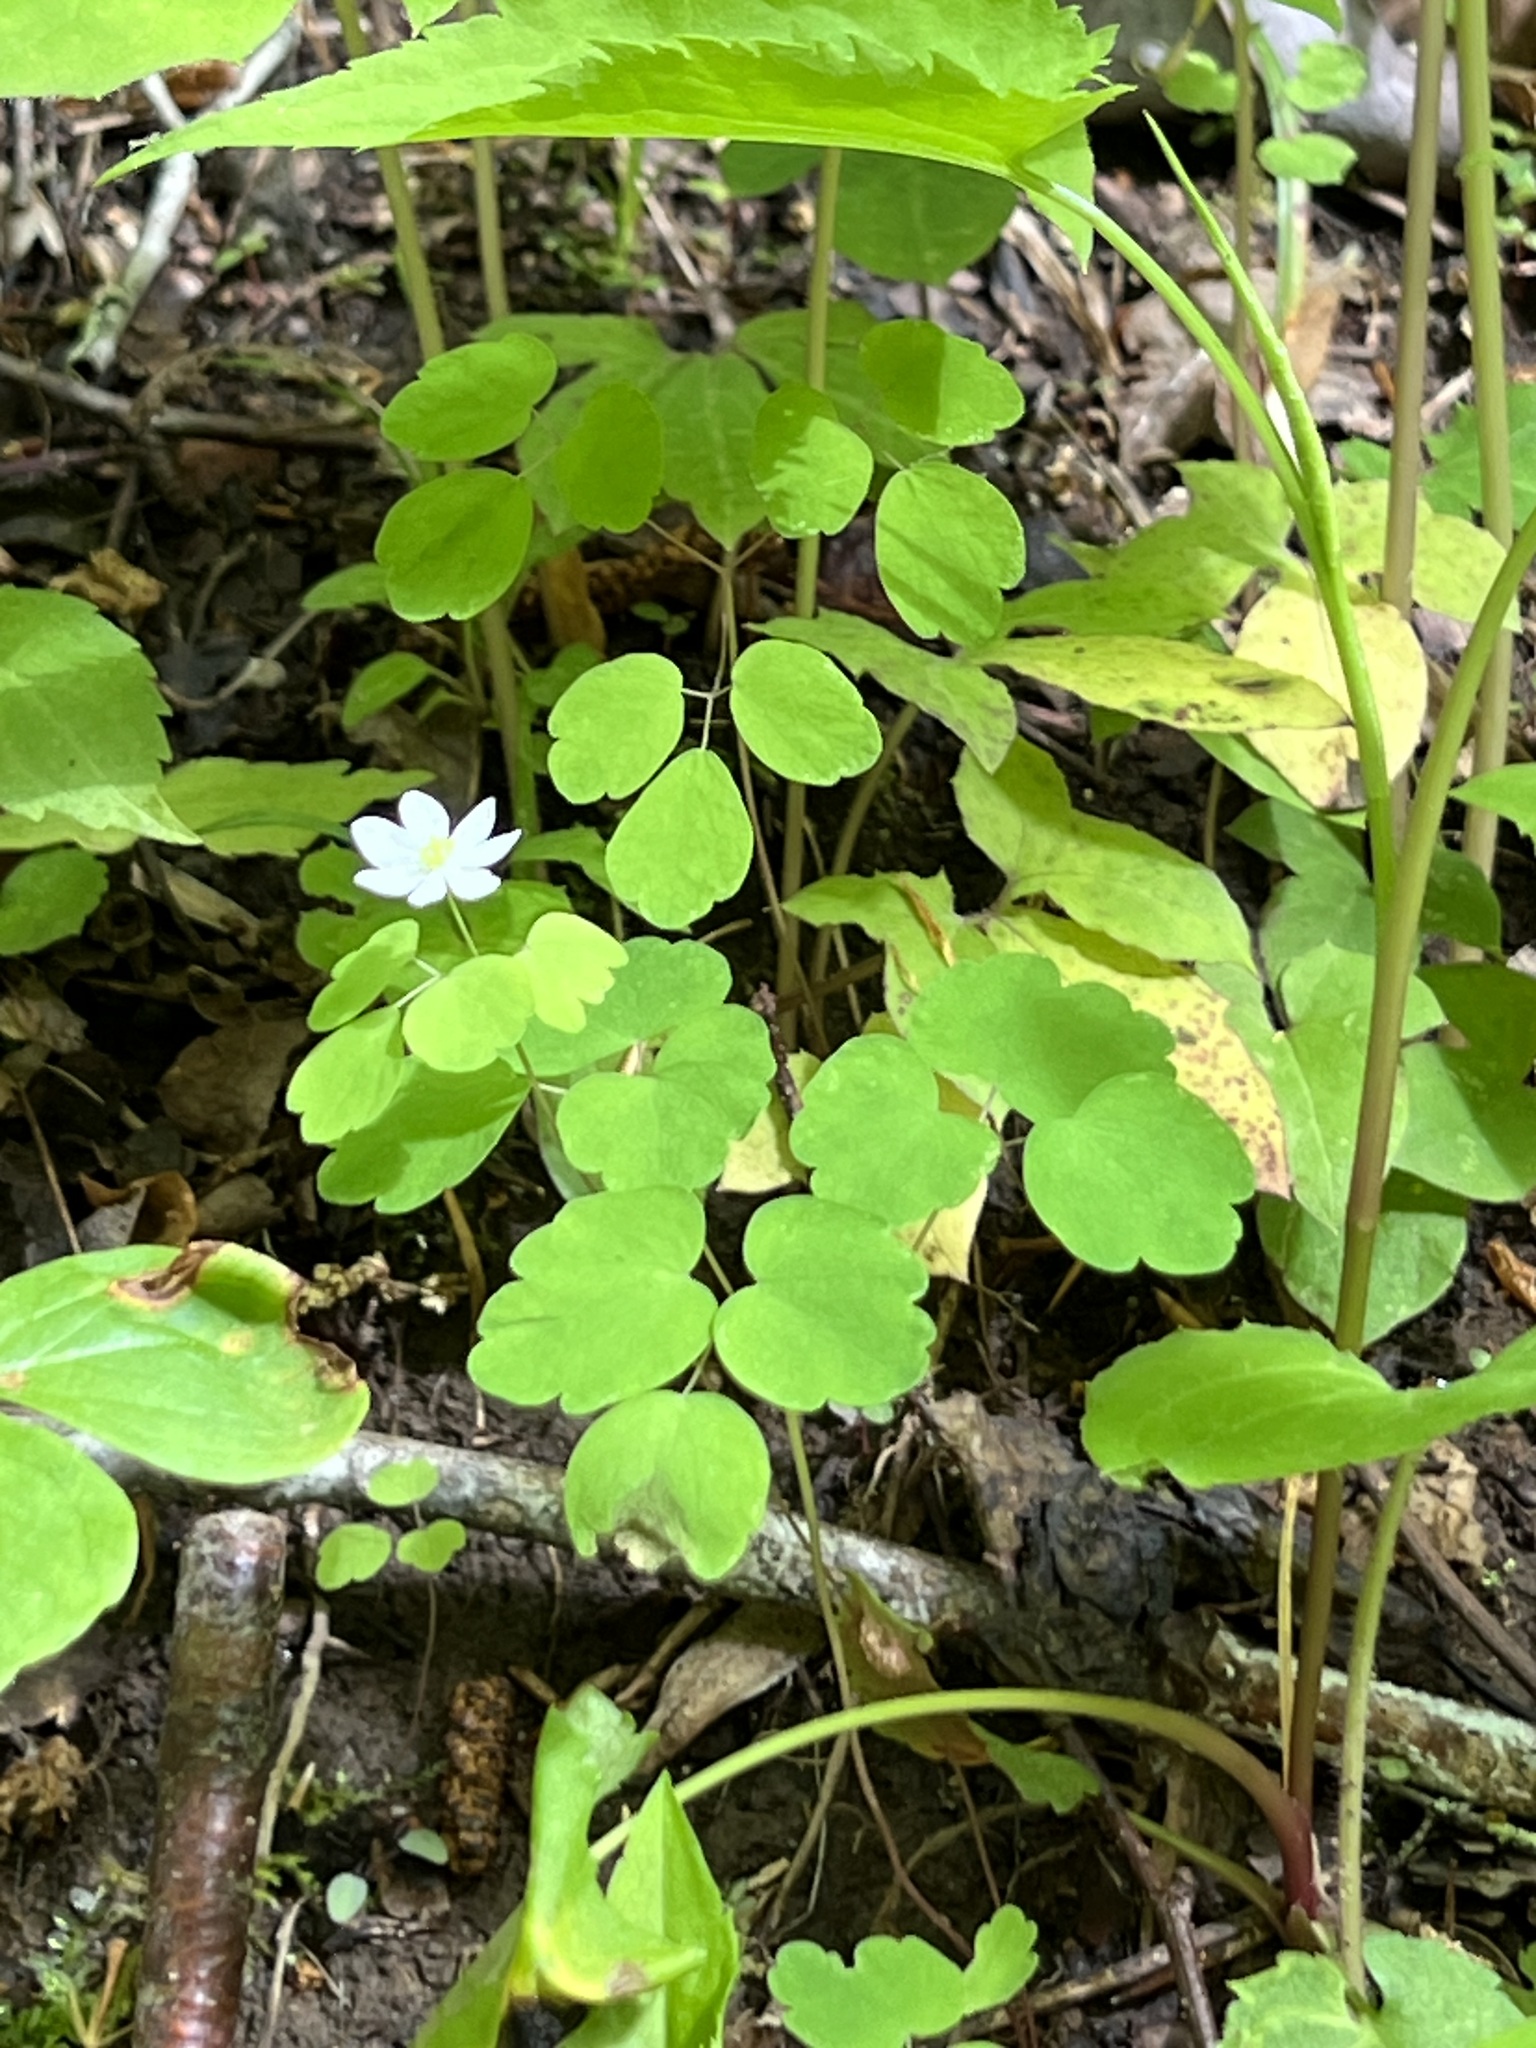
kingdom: Plantae
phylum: Tracheophyta
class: Magnoliopsida
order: Ranunculales
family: Ranunculaceae
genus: Thalictrum
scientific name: Thalictrum thalictroides
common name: Rue-anemone
